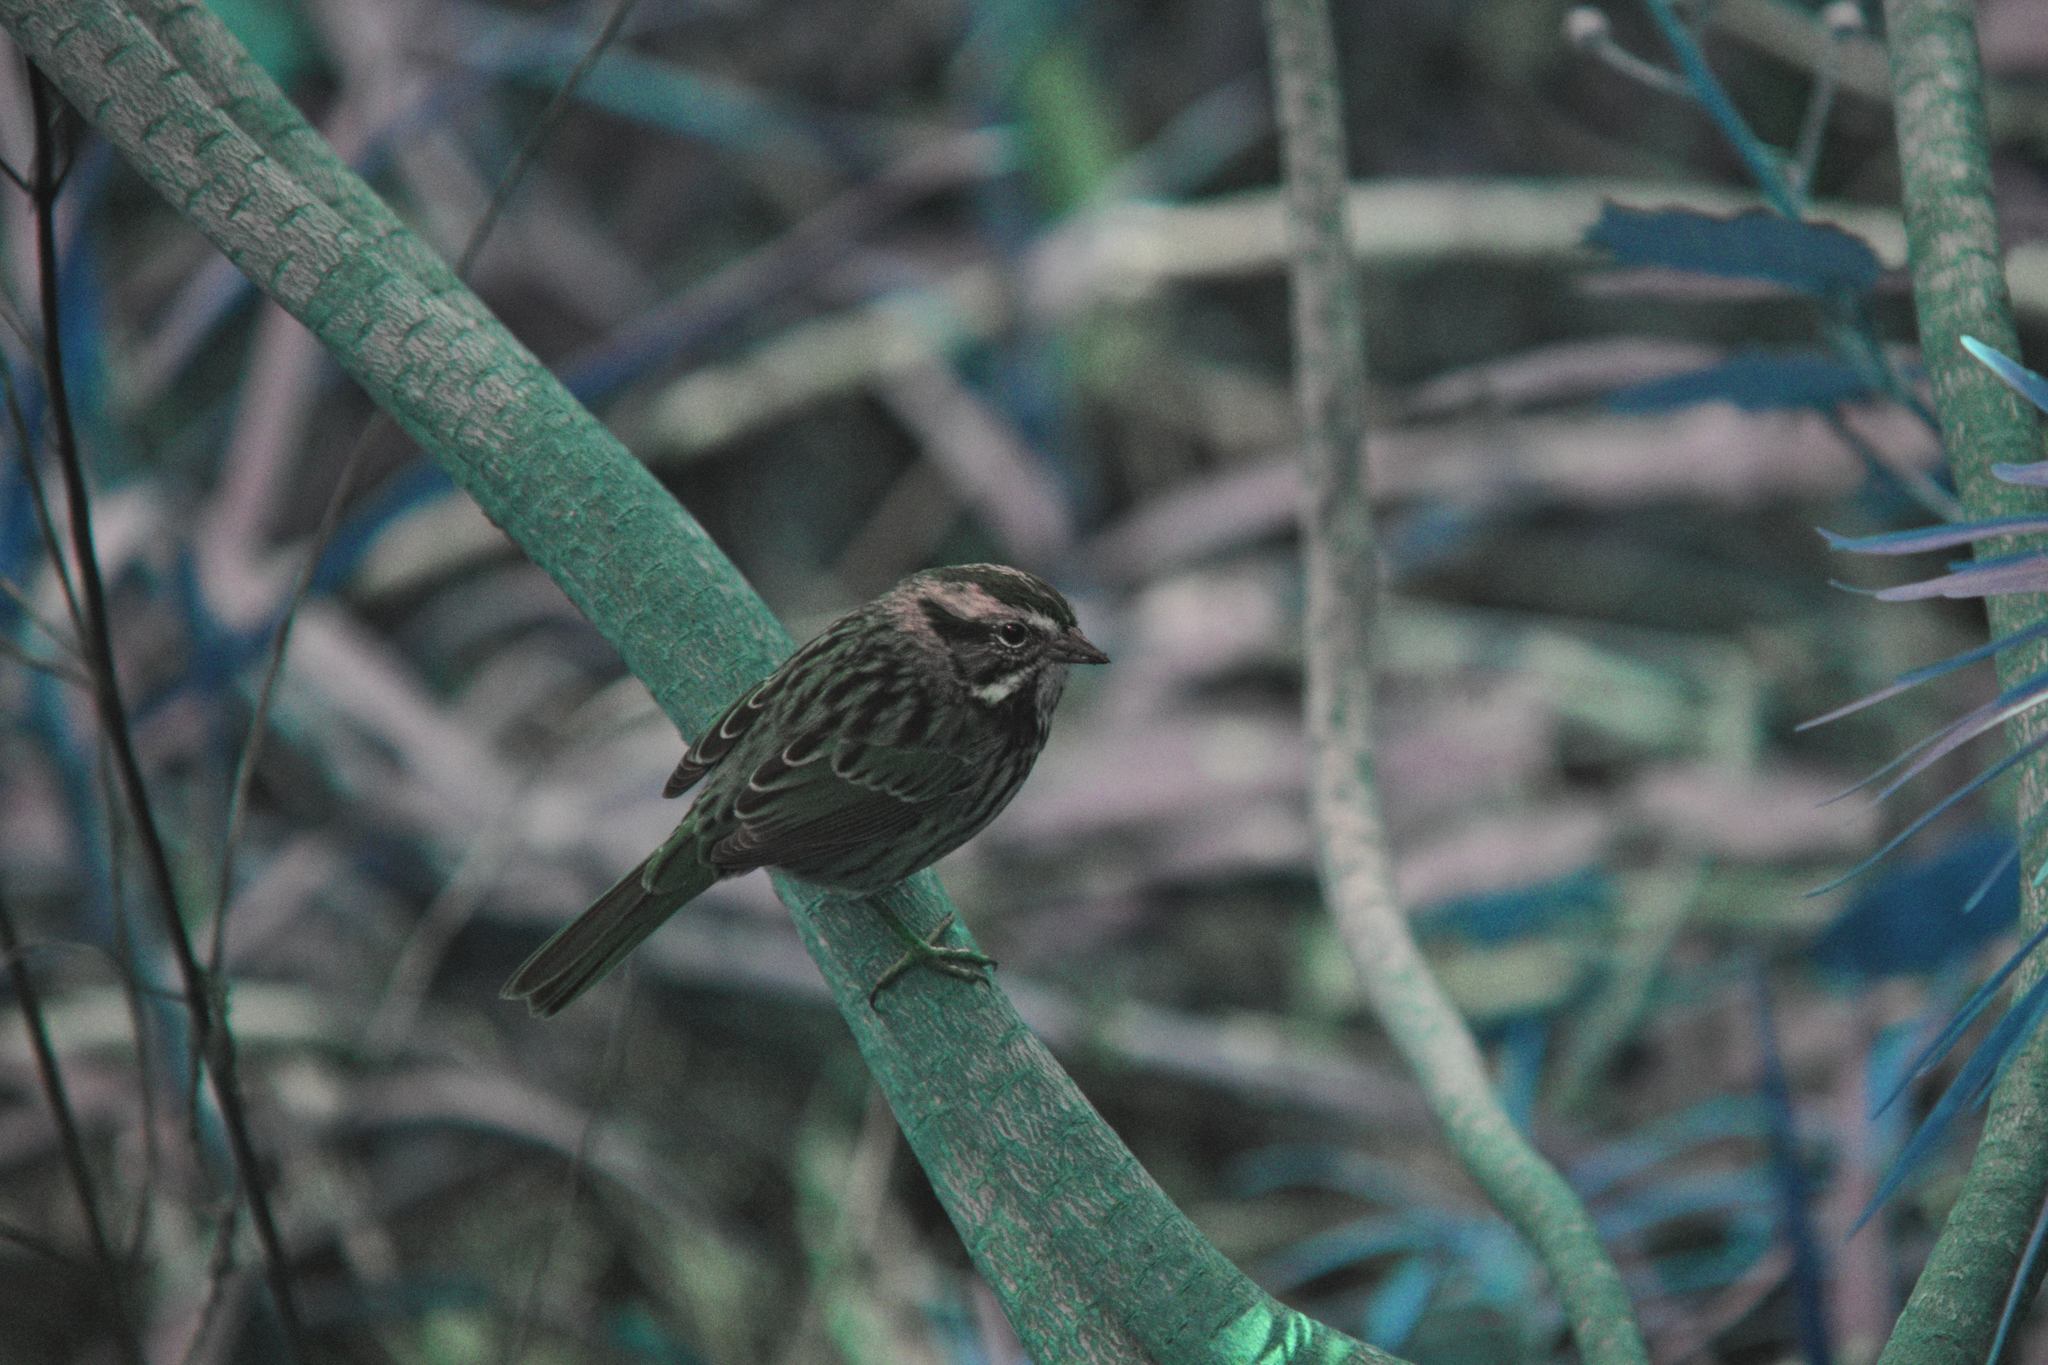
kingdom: Animalia
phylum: Chordata
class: Aves
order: Passeriformes
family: Passerellidae
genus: Melospiza
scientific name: Melospiza melodia
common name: Song sparrow
